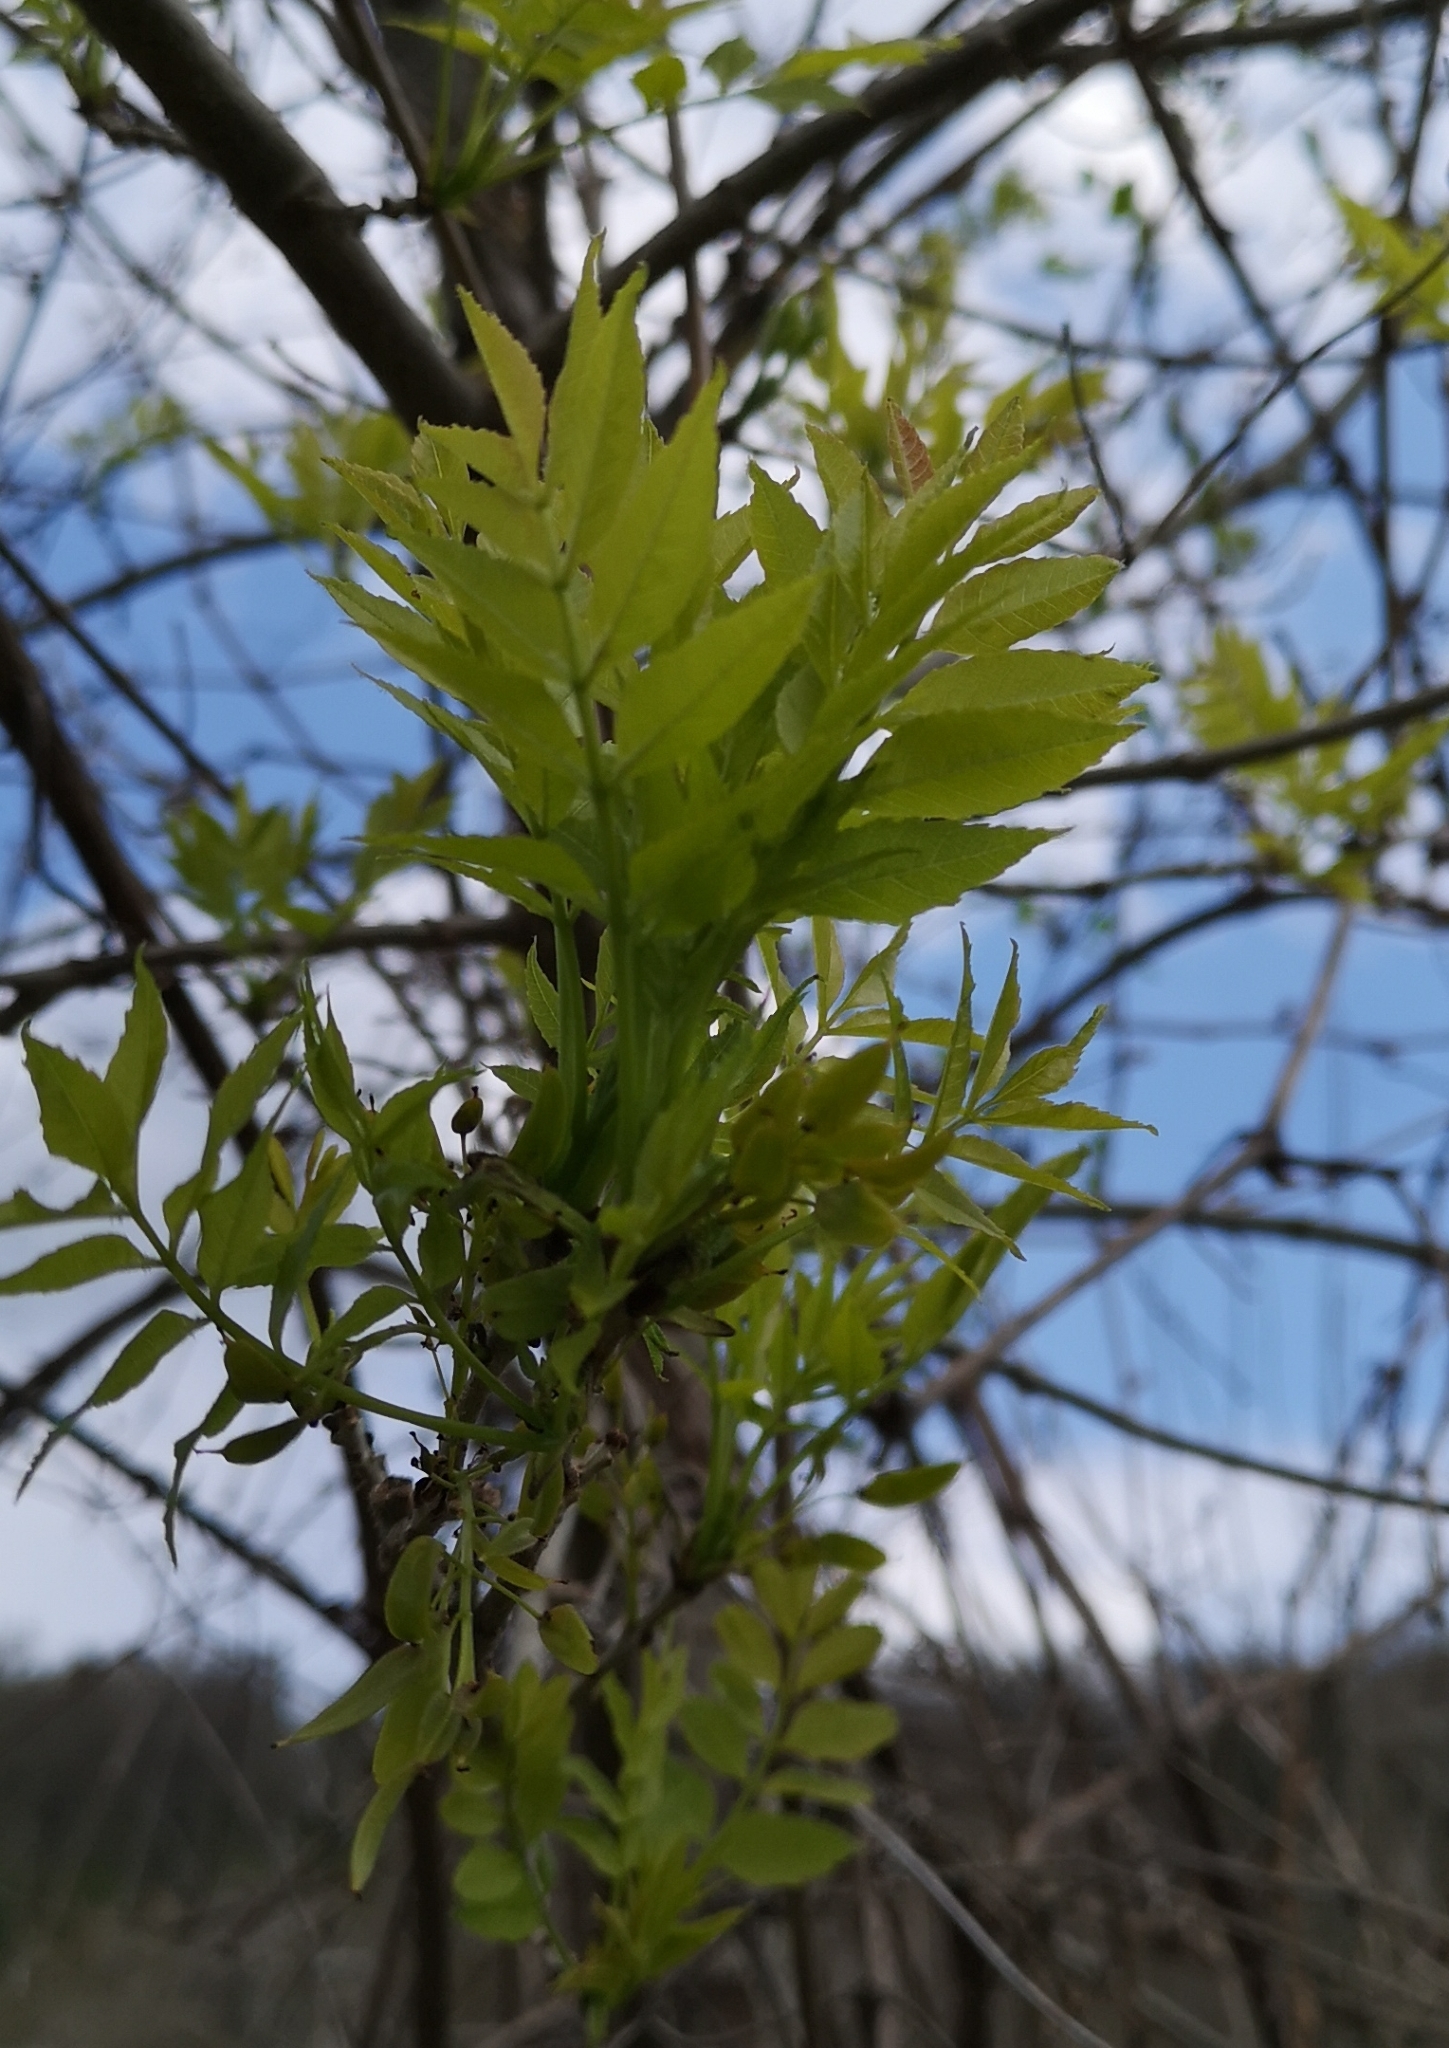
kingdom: Plantae
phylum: Tracheophyta
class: Magnoliopsida
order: Lamiales
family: Oleaceae
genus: Fraxinus
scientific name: Fraxinus excelsior
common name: European ash
